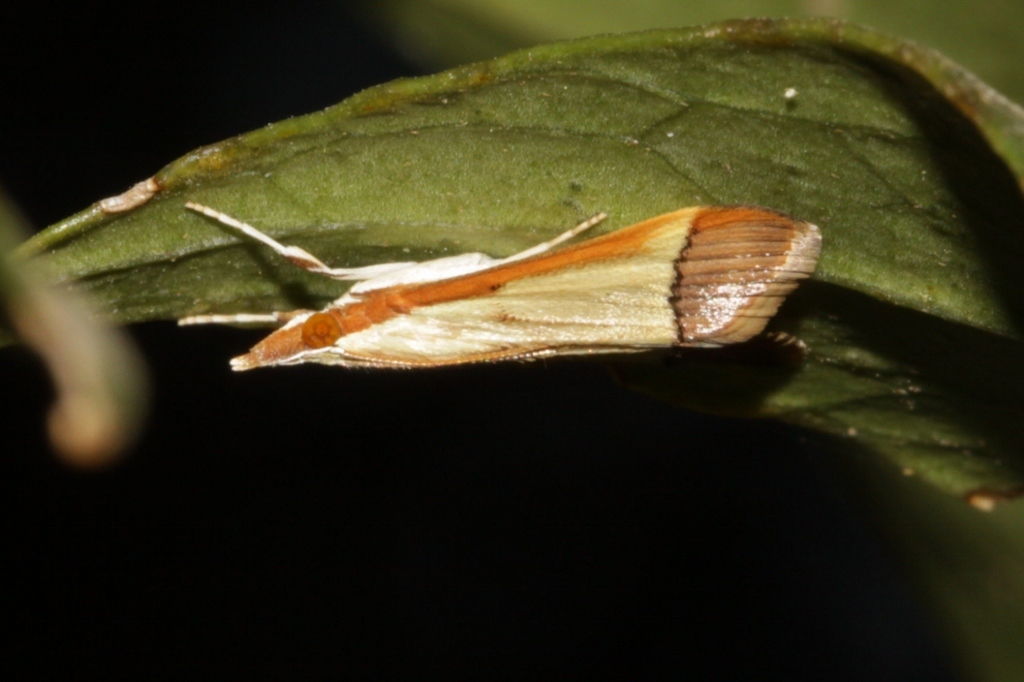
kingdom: Animalia
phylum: Arthropoda
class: Insecta
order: Lepidoptera
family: Crambidae
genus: Autocharis
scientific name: Autocharis fessalis
